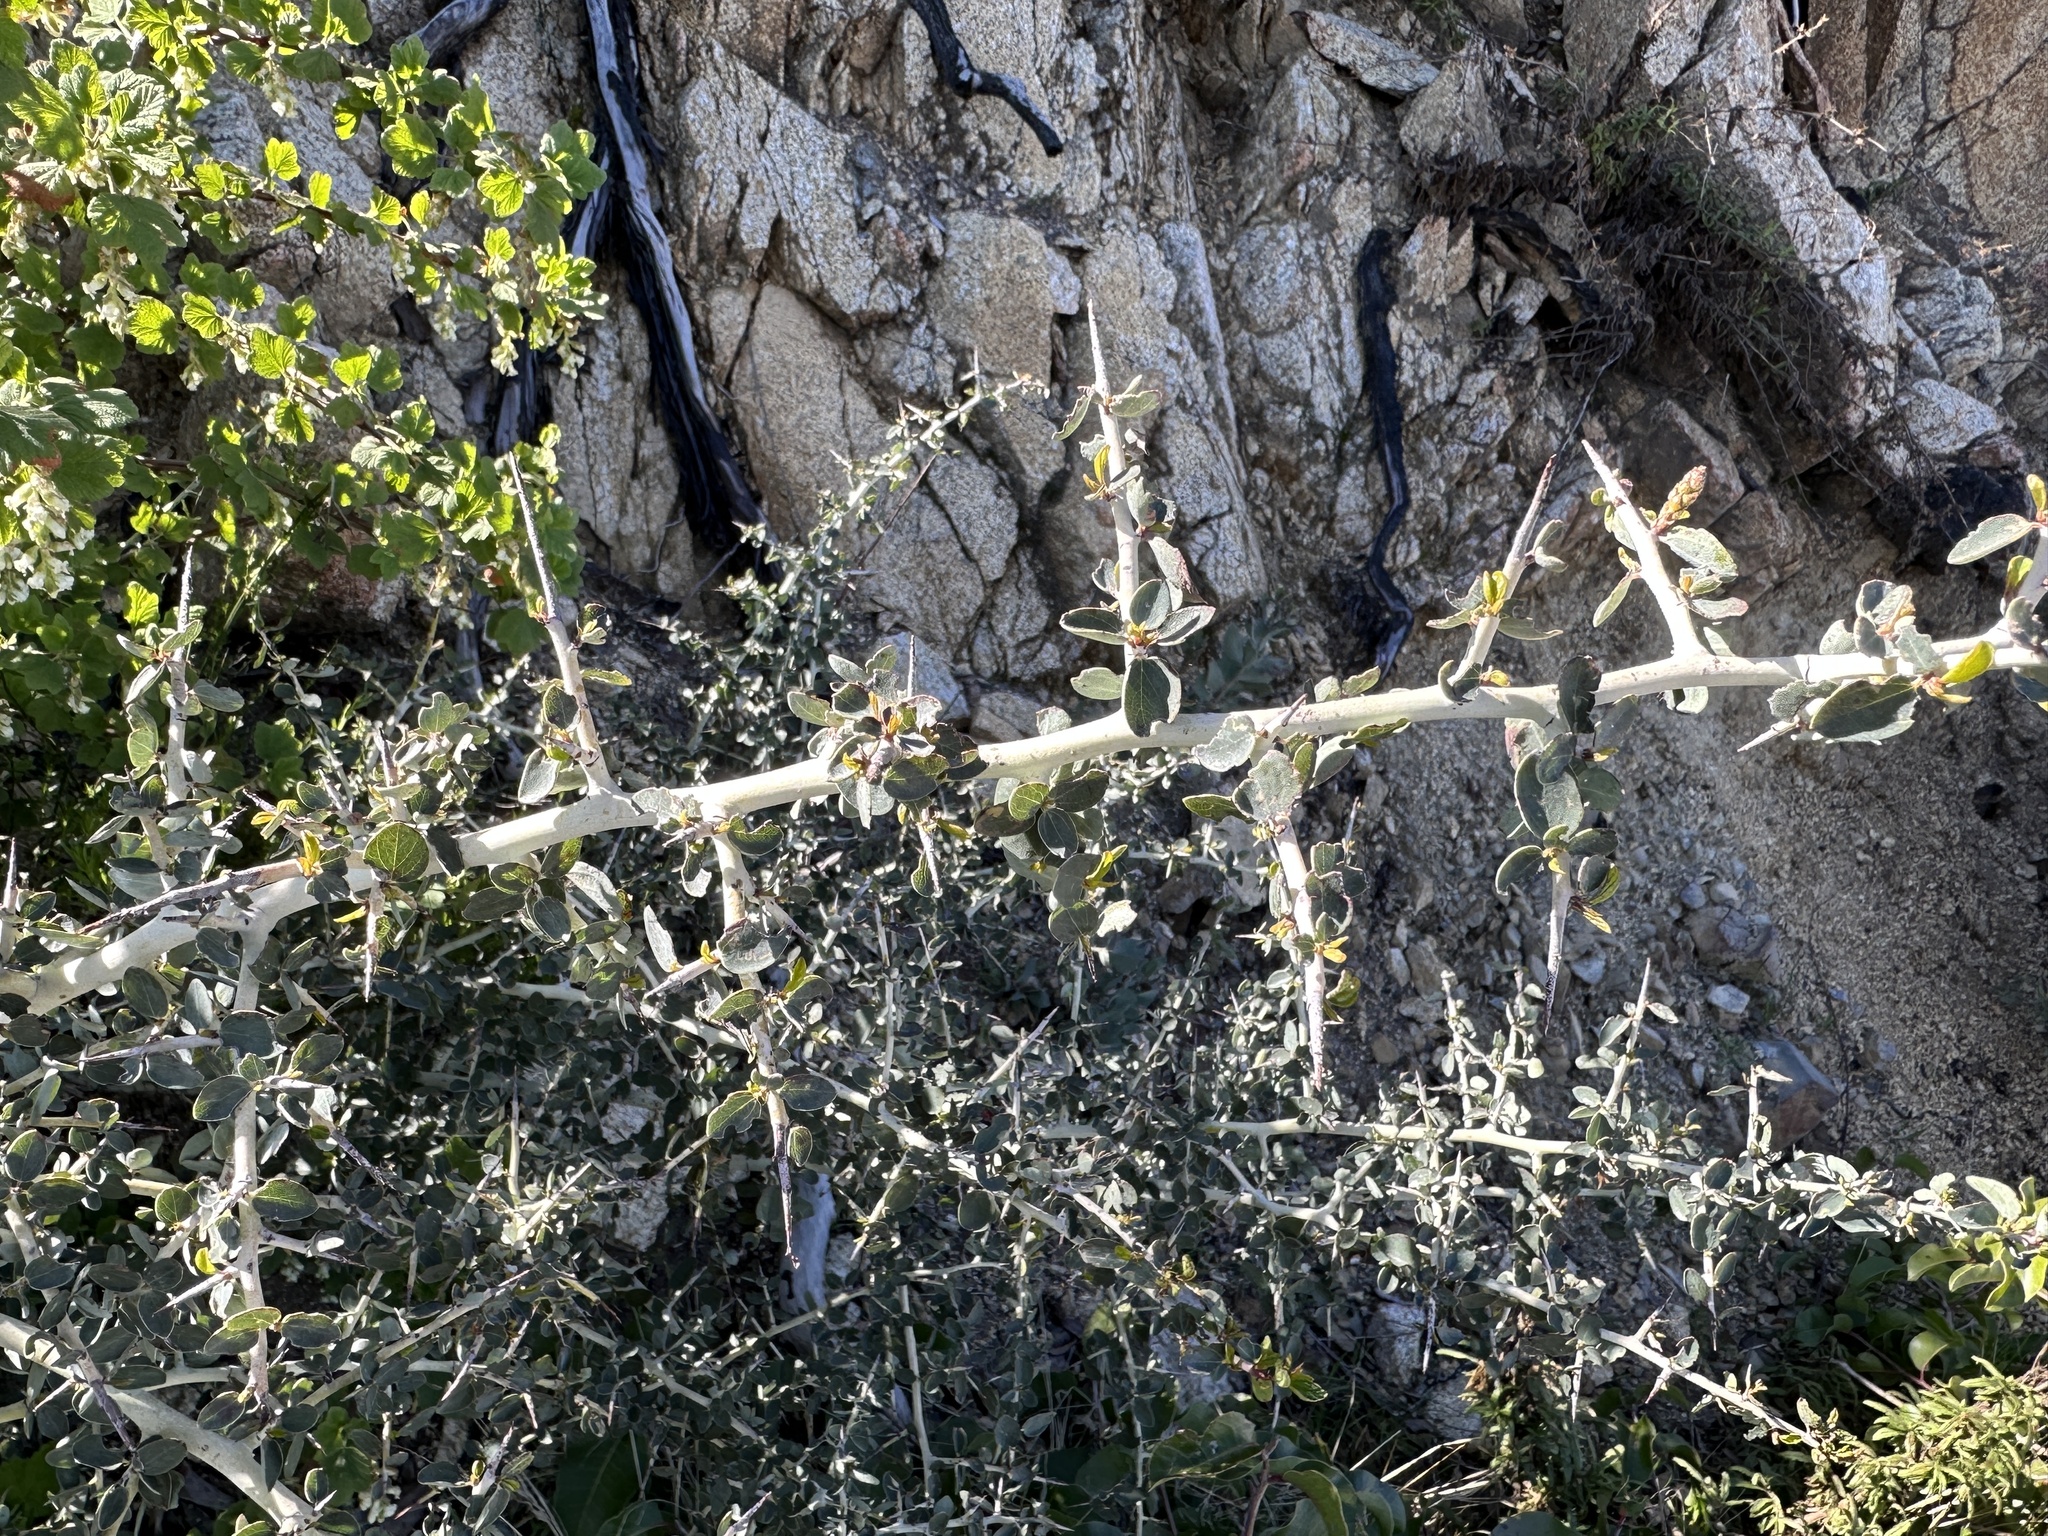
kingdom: Plantae
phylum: Tracheophyta
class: Magnoliopsida
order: Rosales
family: Rhamnaceae
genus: Ceanothus
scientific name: Ceanothus leucodermis
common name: Chaparral whitethorn
